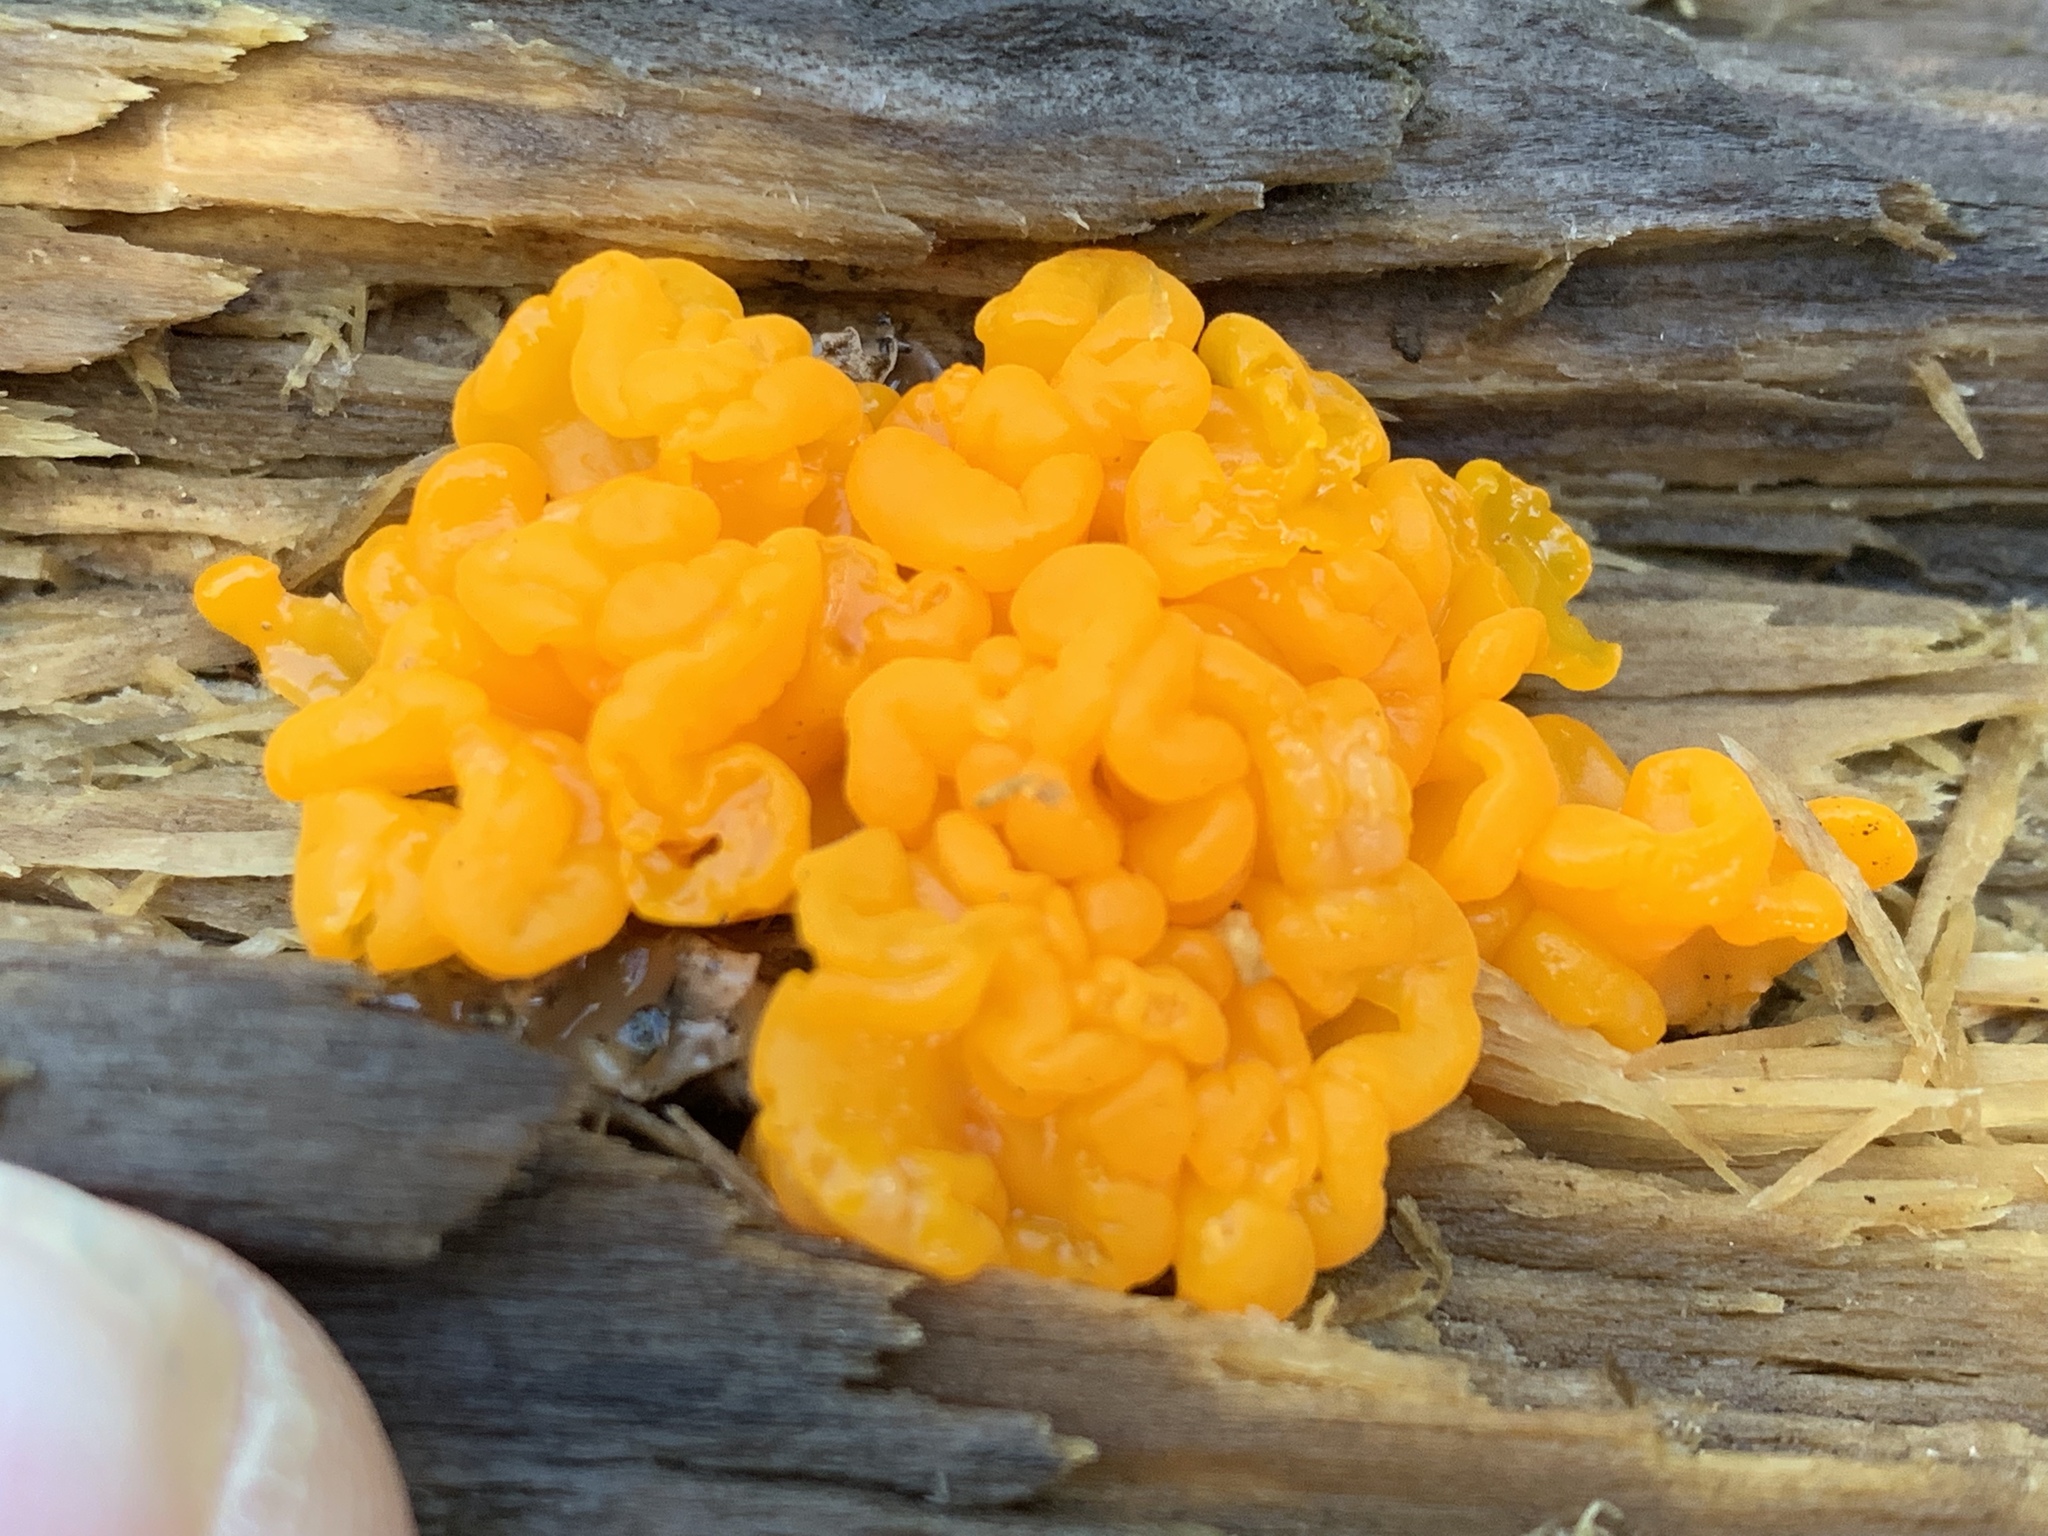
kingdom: Fungi
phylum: Basidiomycota
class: Dacrymycetes
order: Dacrymycetales
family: Dacrymycetaceae
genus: Dacrymyces
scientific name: Dacrymyces chrysospermus
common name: Orange jelly spot
